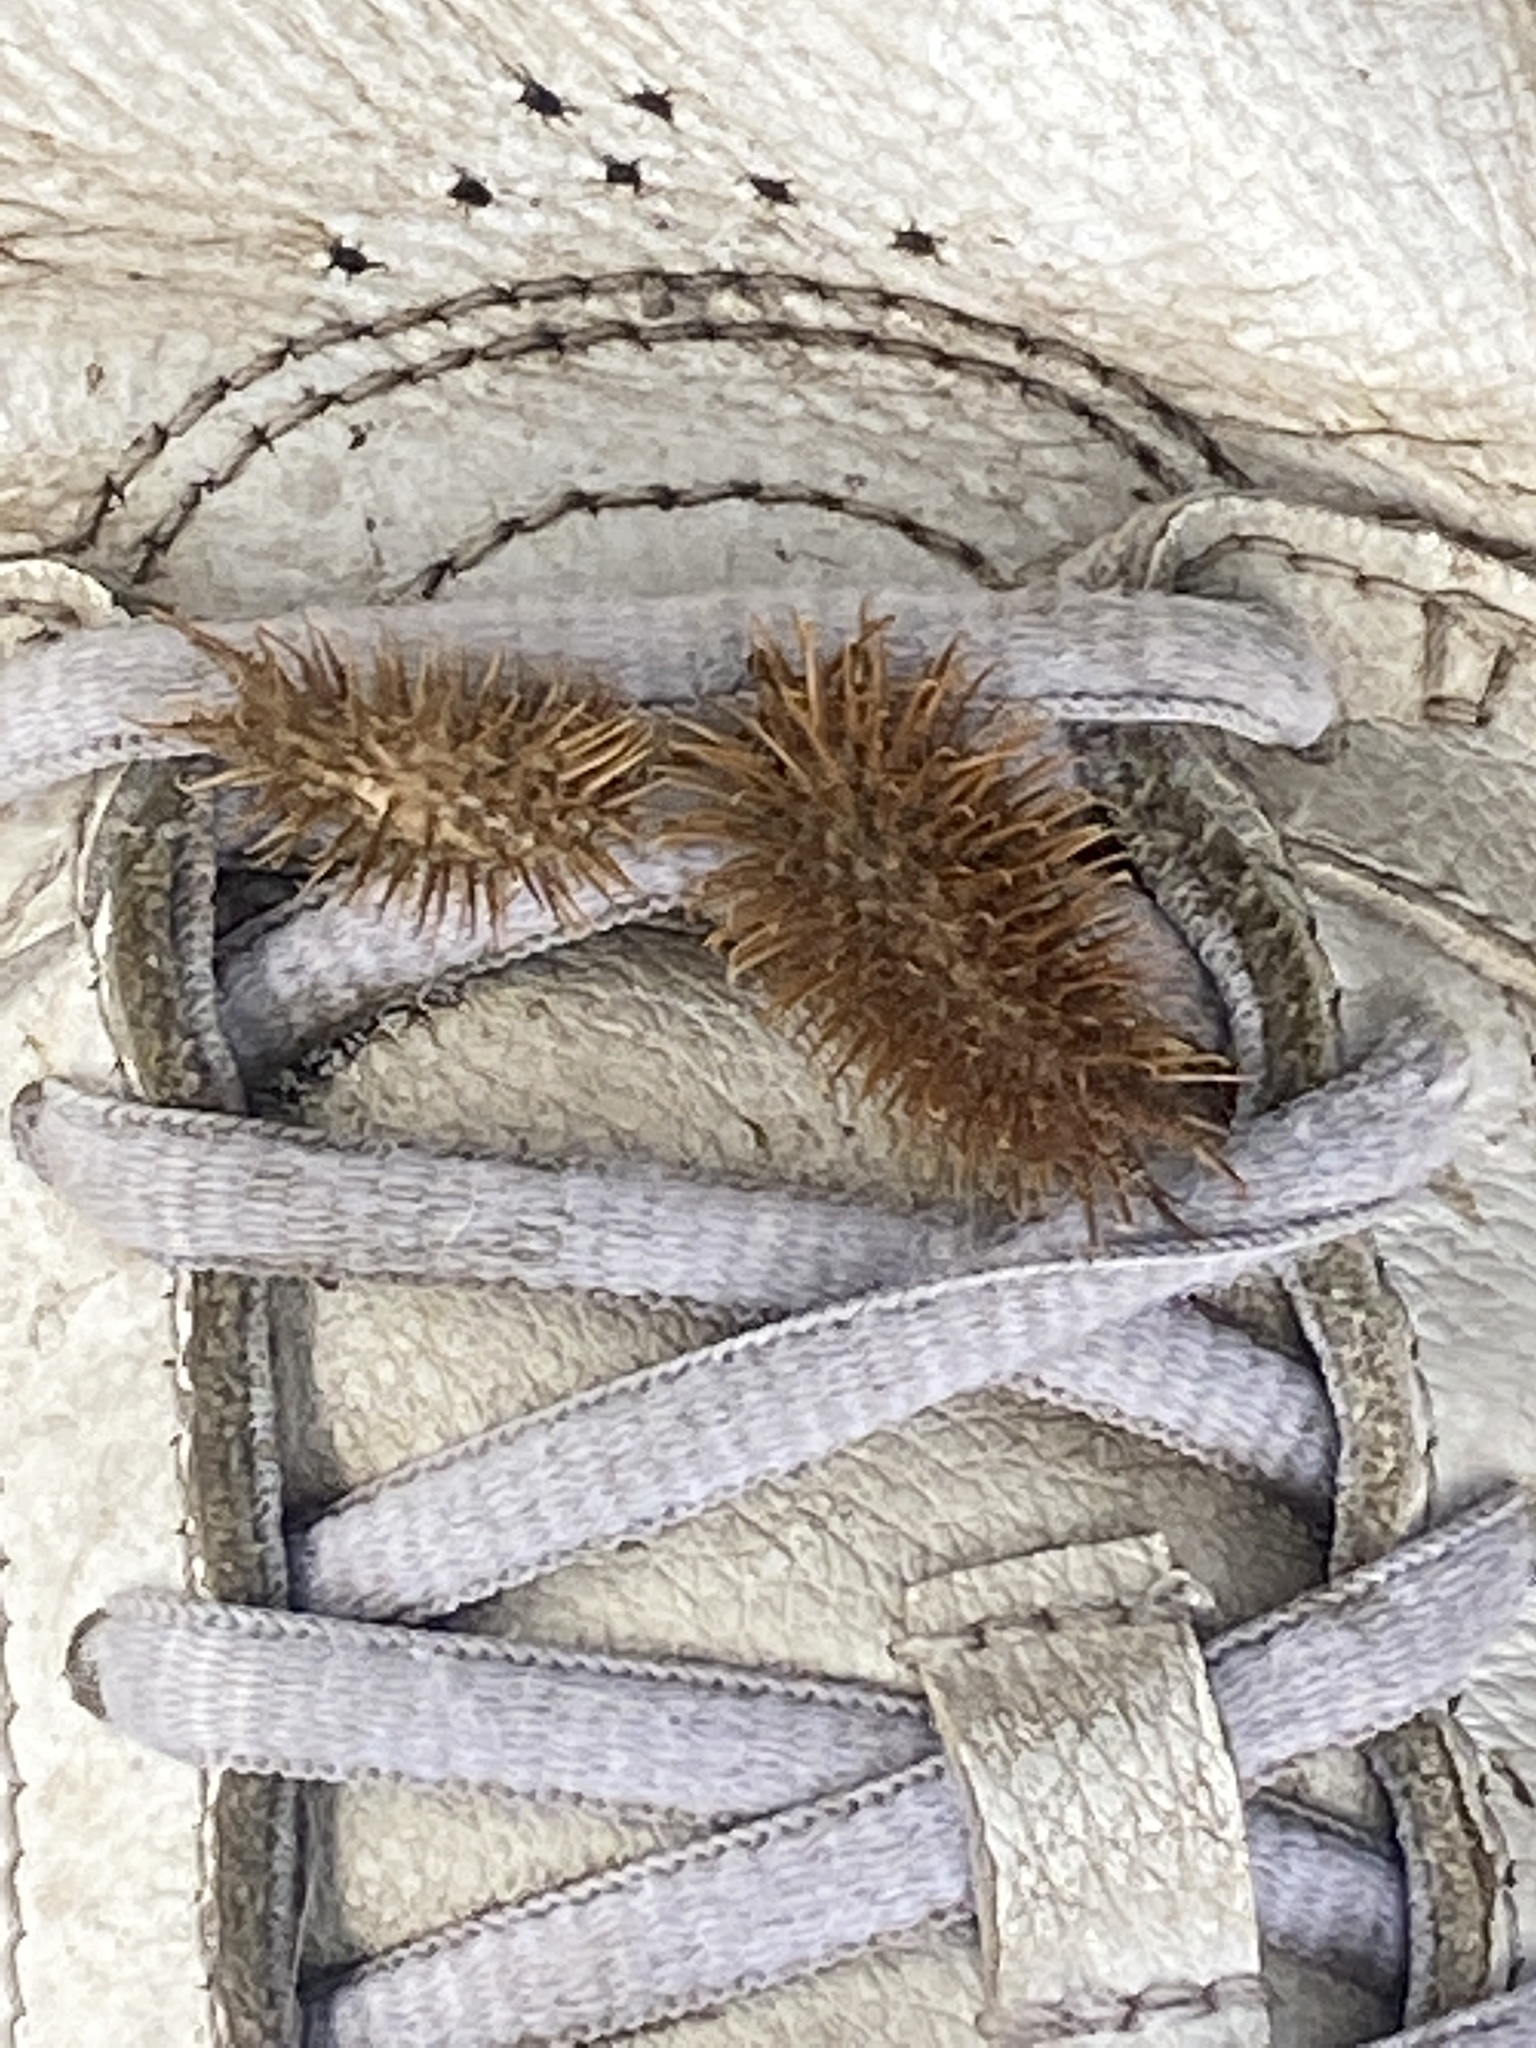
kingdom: Plantae
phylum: Tracheophyta
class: Magnoliopsida
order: Asterales
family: Asteraceae
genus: Xanthium
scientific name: Xanthium strumarium
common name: Rough cocklebur
